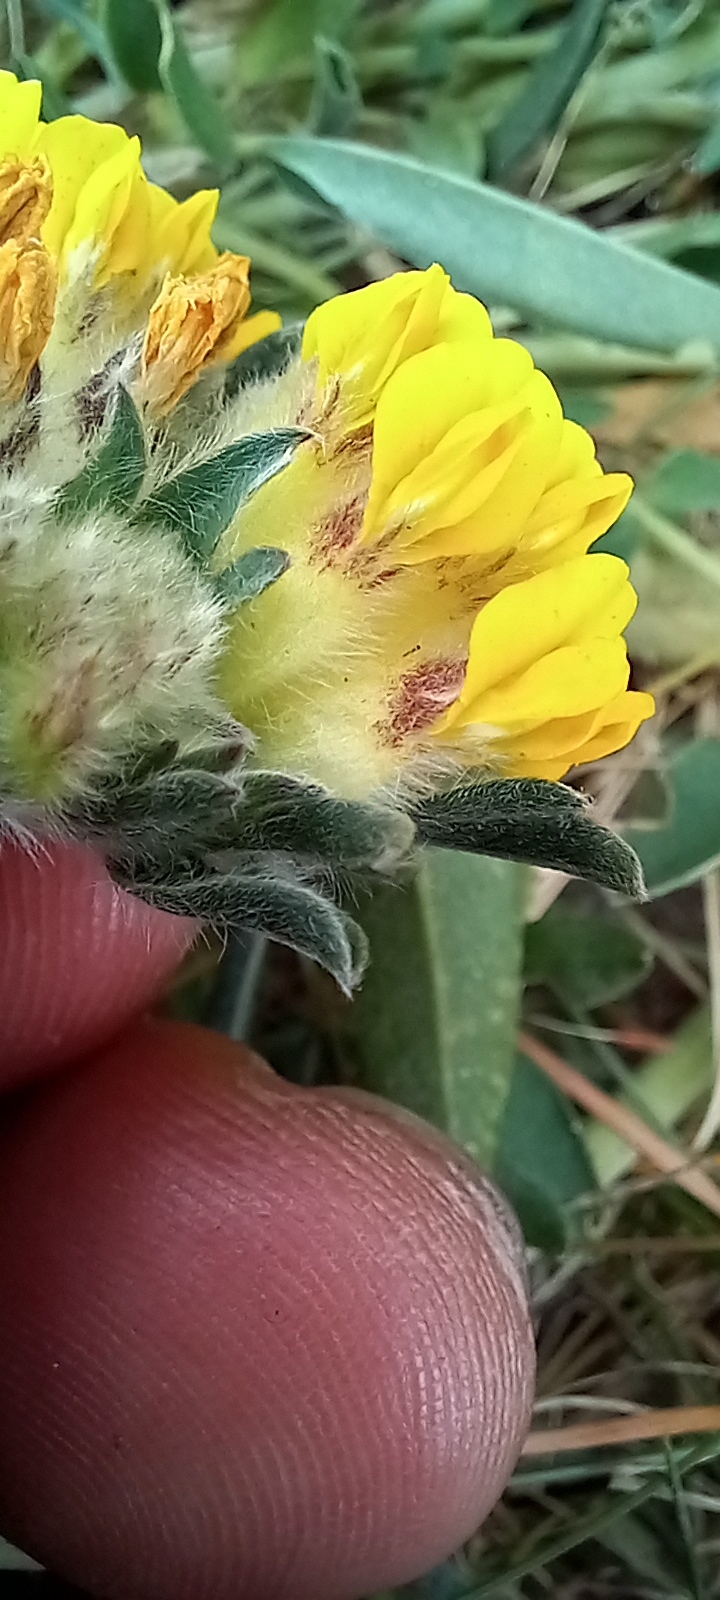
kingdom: Plantae
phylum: Tracheophyta
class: Magnoliopsida
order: Fabales
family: Fabaceae
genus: Anthyllis
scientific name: Anthyllis vulneraria
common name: Kidney vetch
